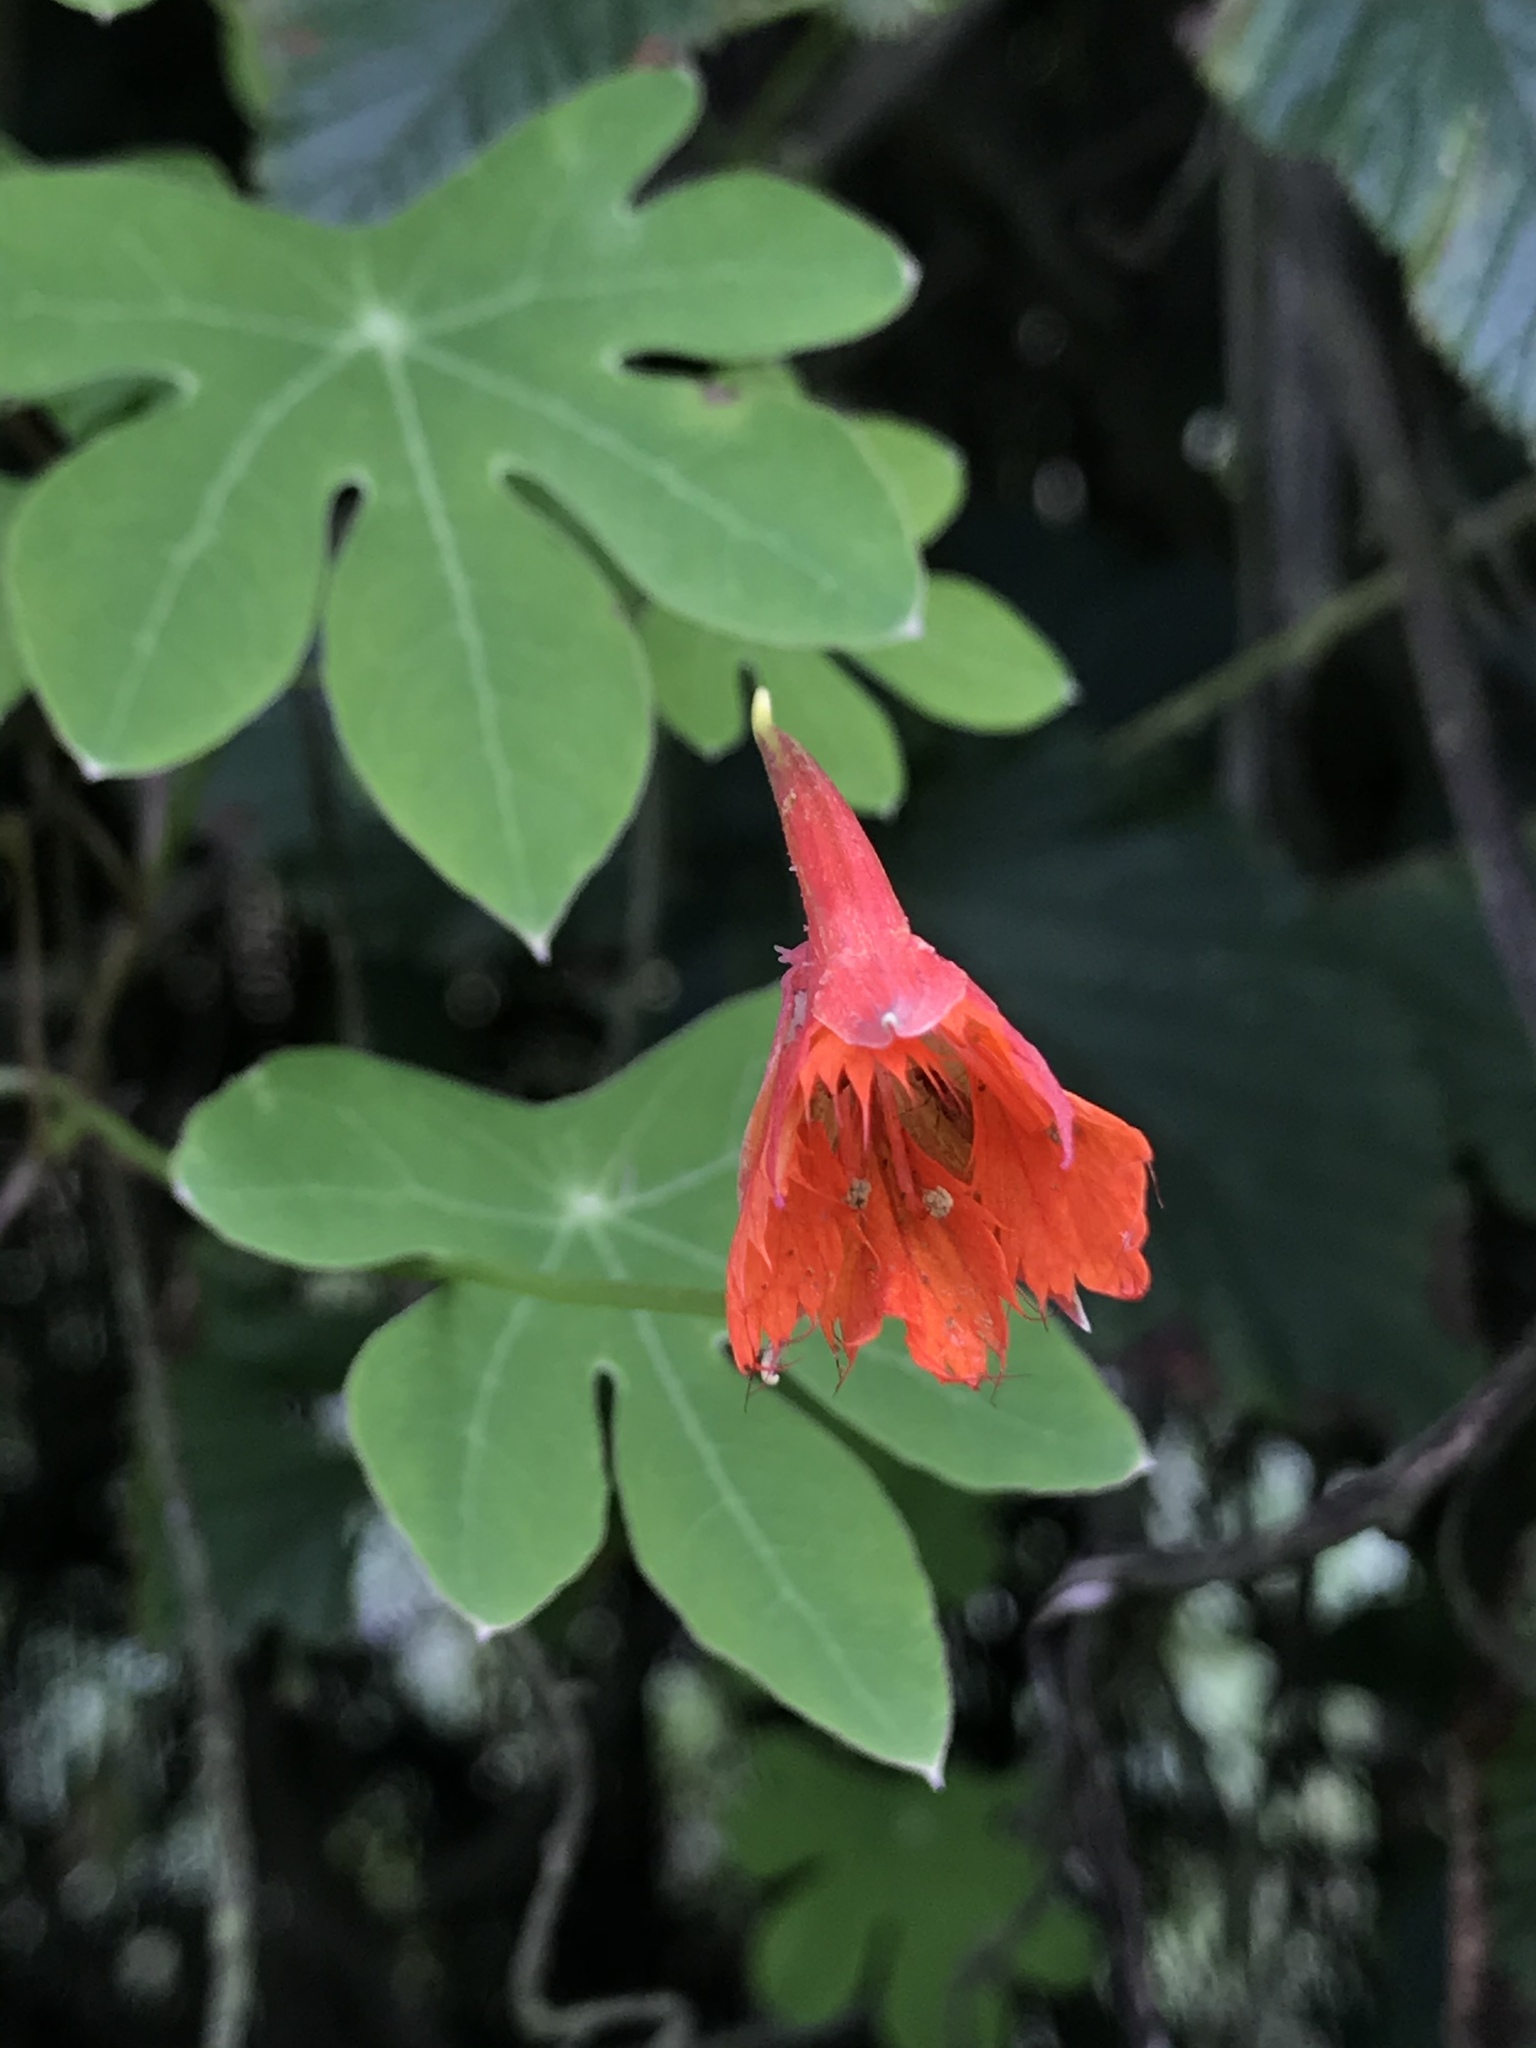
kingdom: Plantae
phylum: Tracheophyta
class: Magnoliopsida
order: Brassicales
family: Tropaeolaceae
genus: Tropaeolum
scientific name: Tropaeolum smithii
